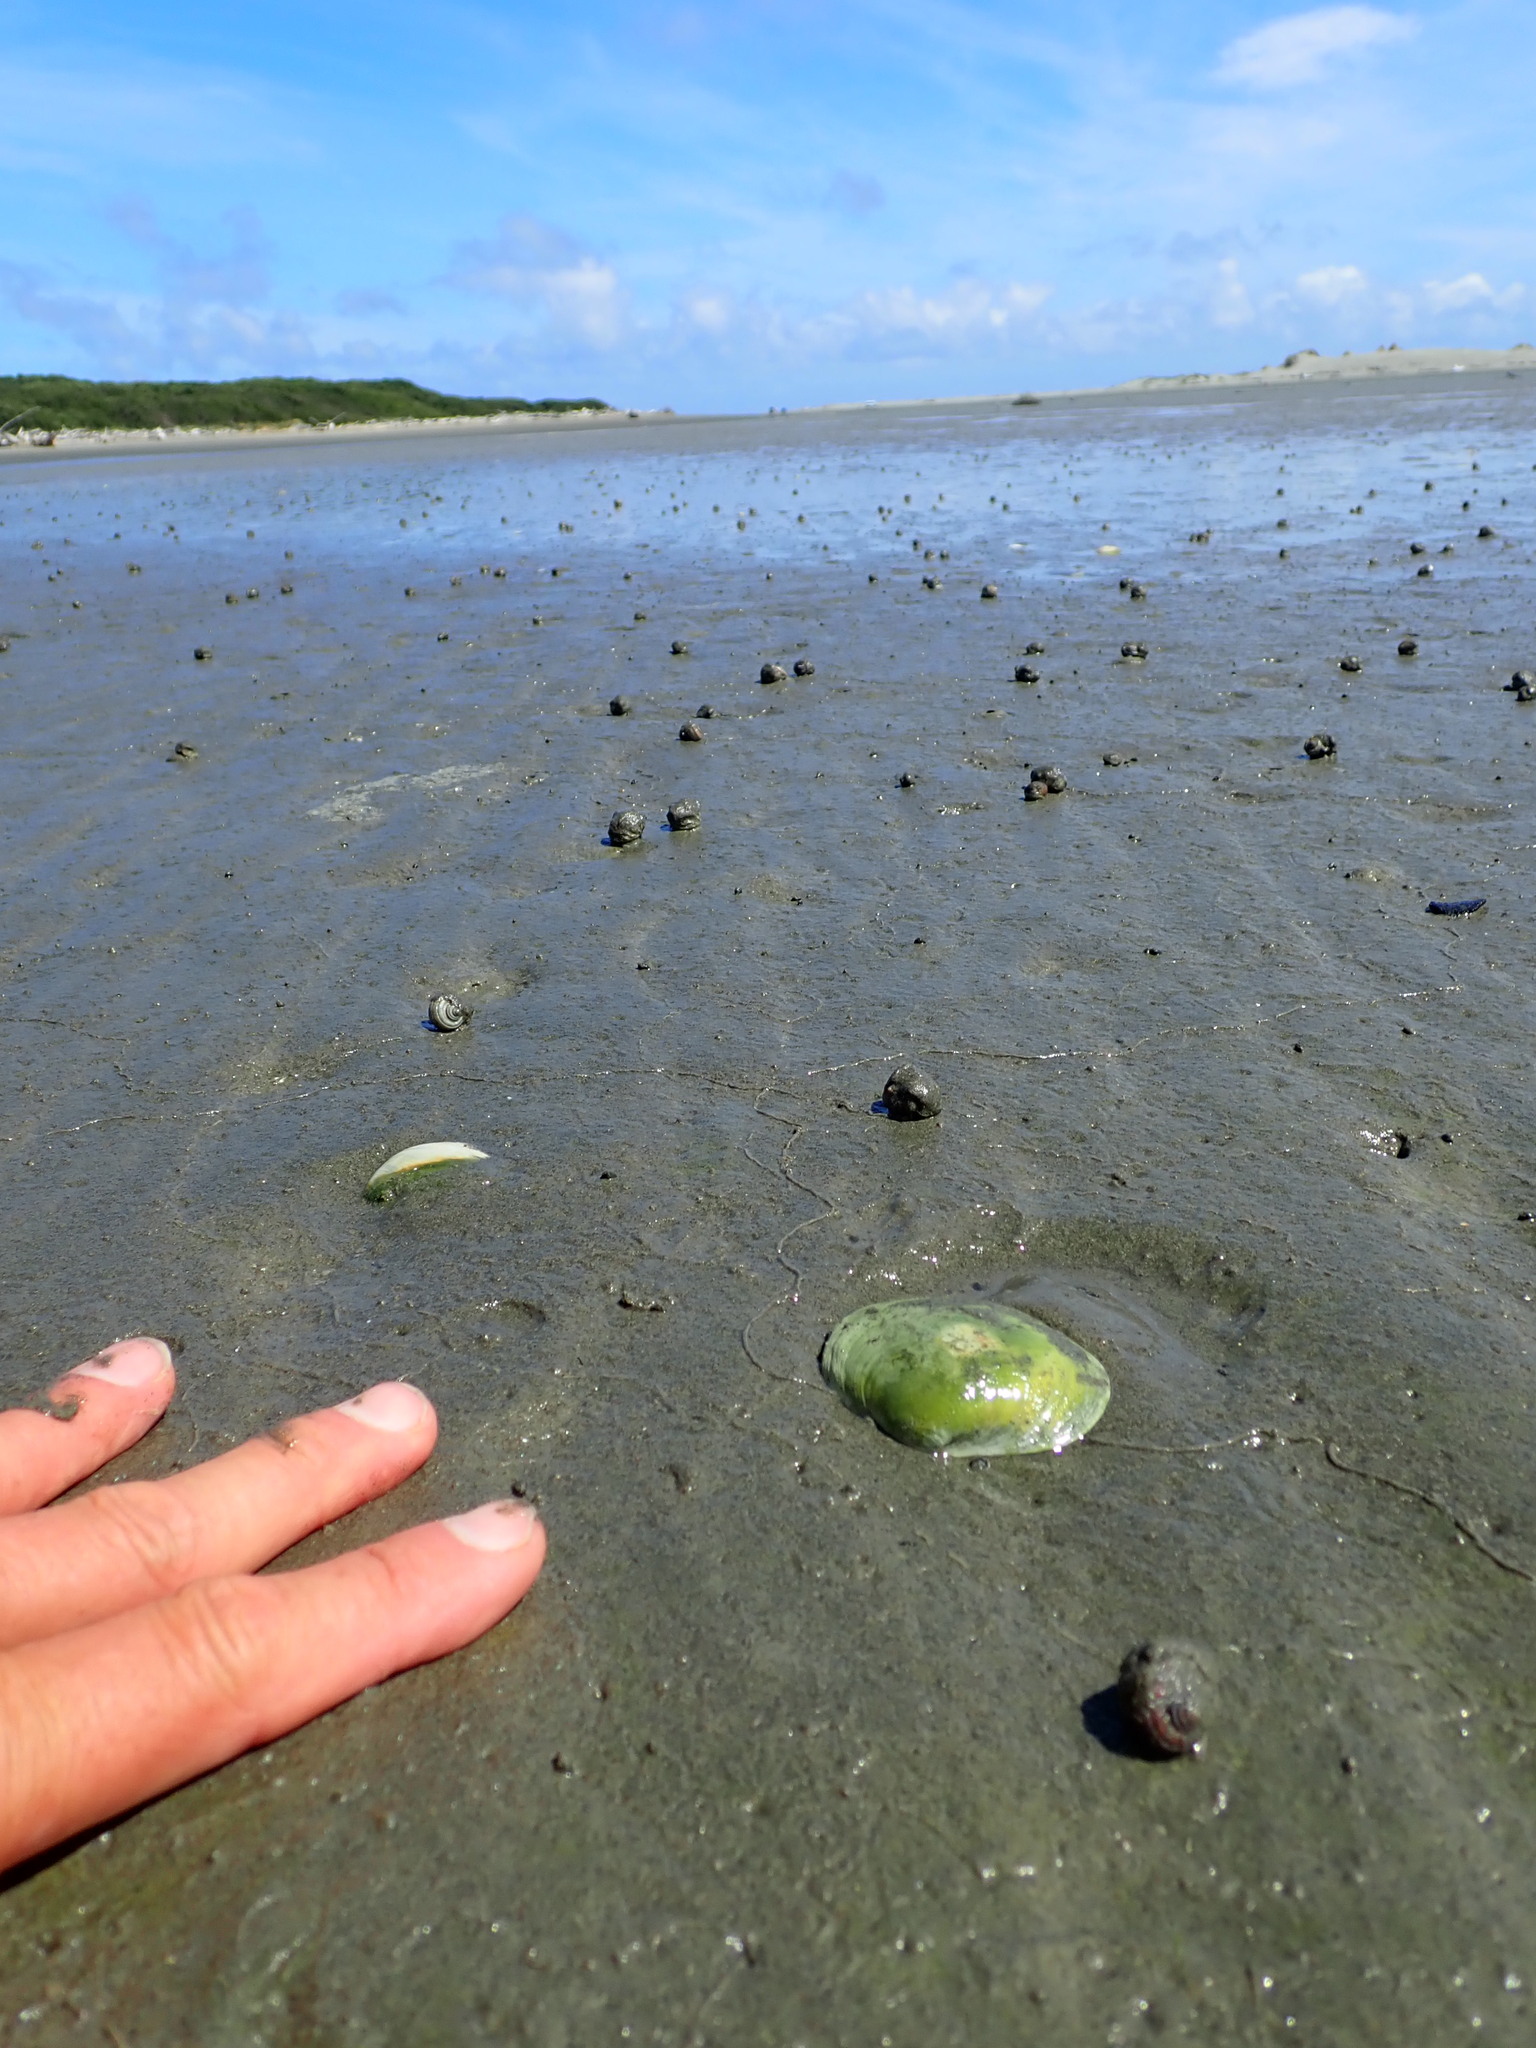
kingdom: Animalia
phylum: Mollusca
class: Bivalvia
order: Venerida
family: Mactridae
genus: Cyclomactra
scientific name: Cyclomactra ovata
